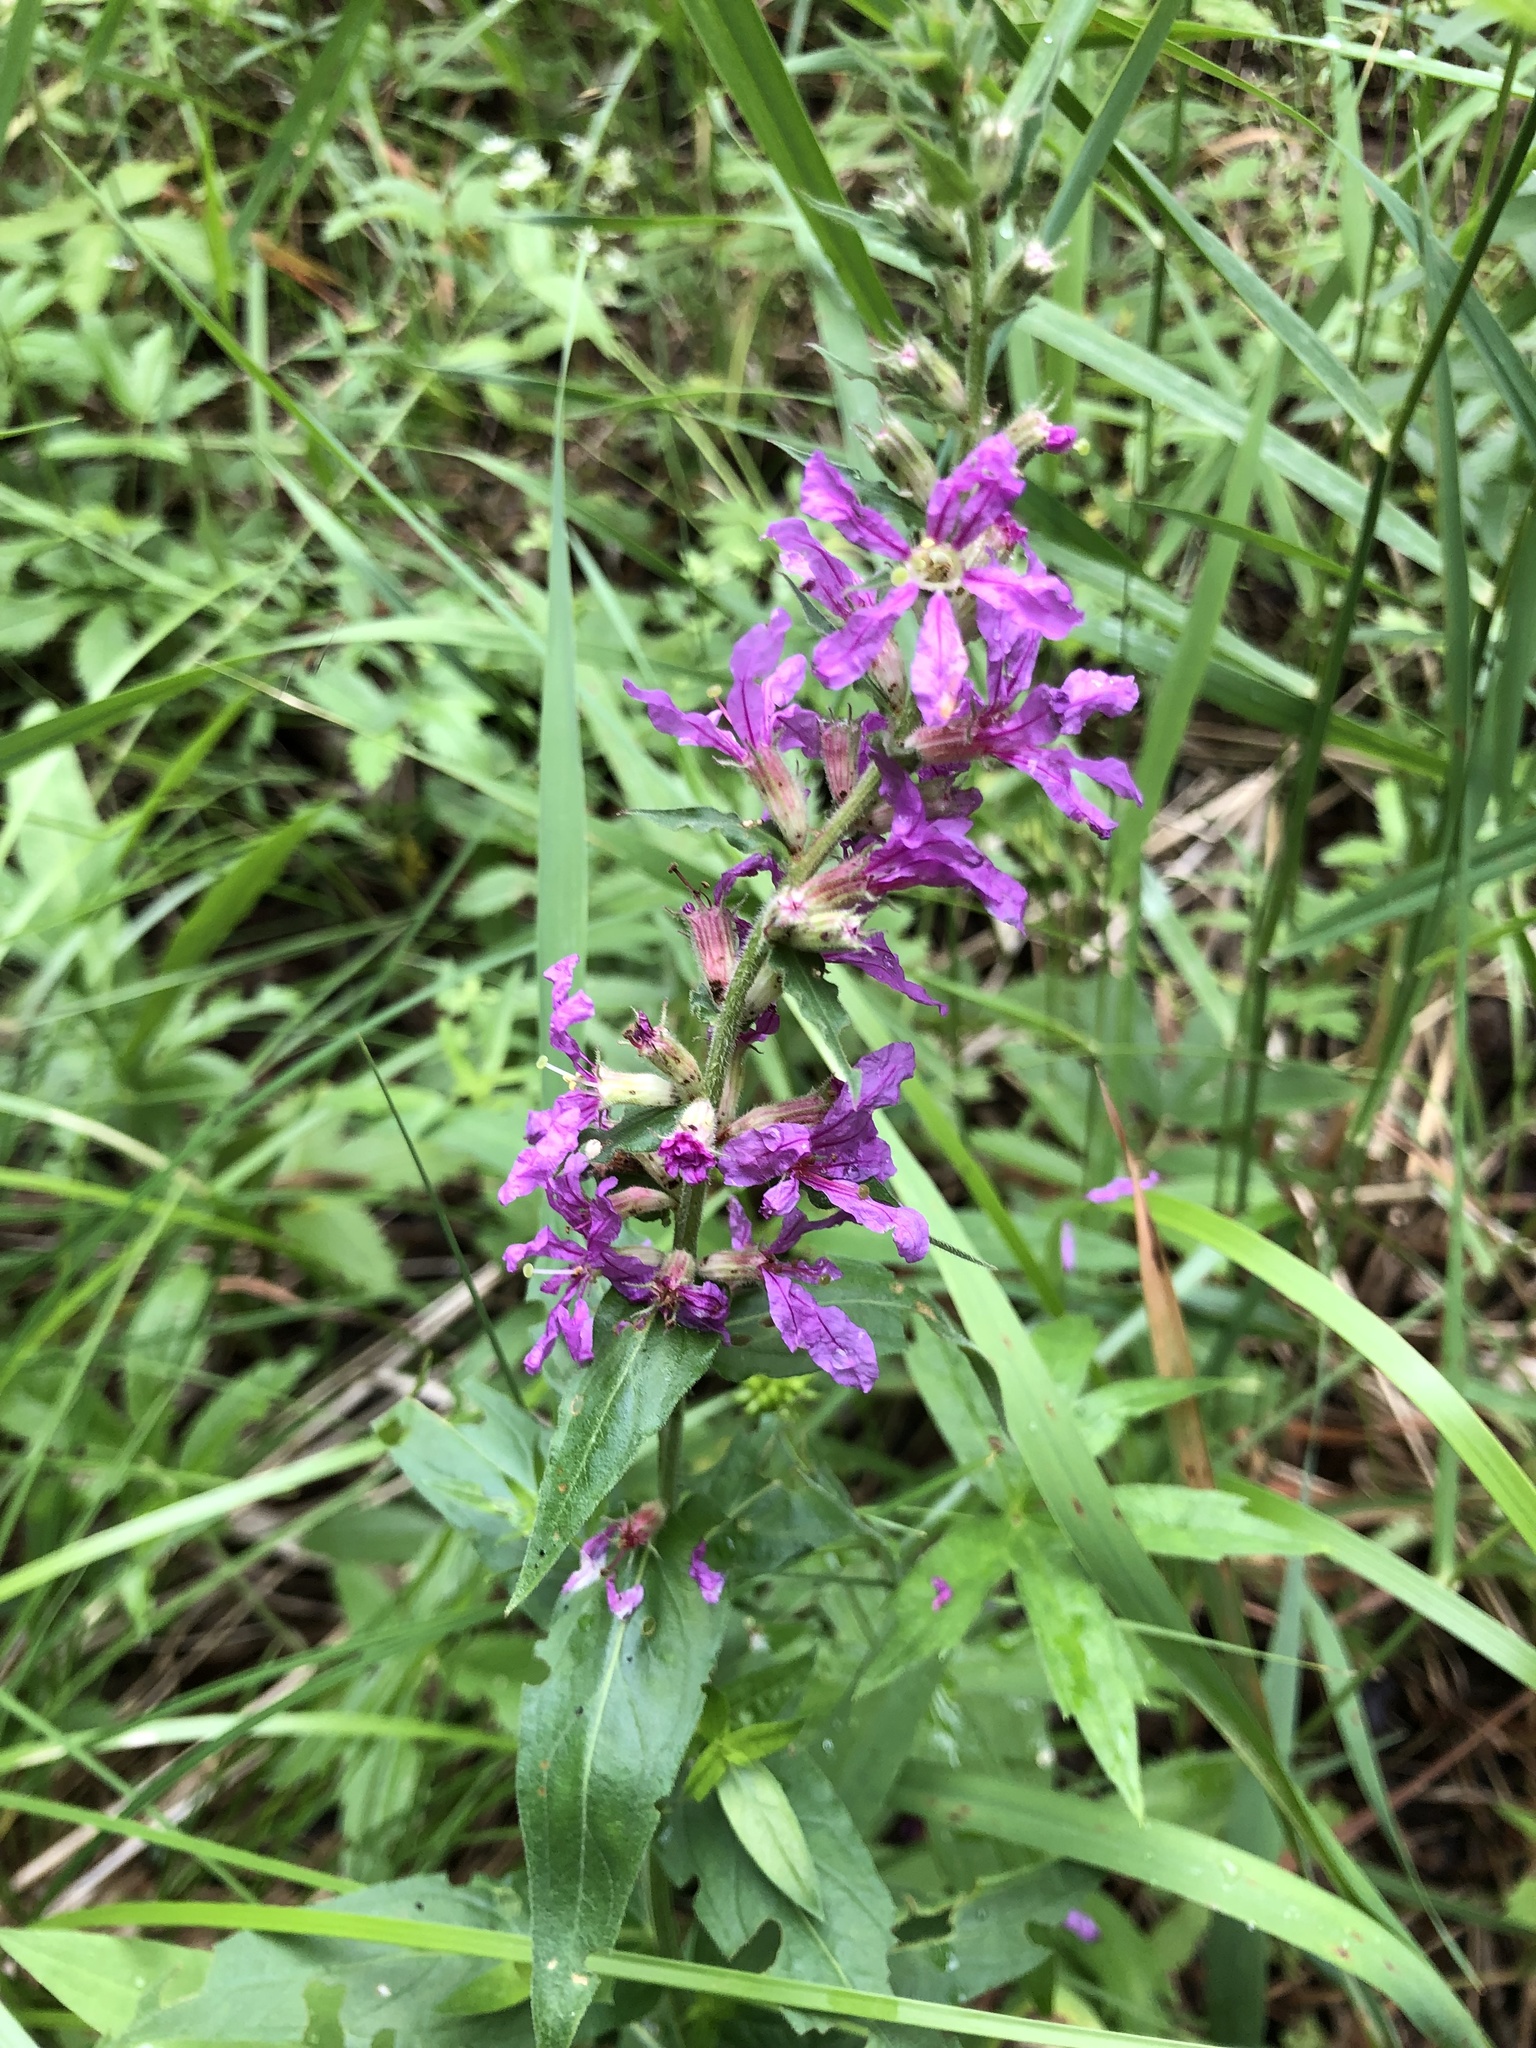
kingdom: Plantae
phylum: Tracheophyta
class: Magnoliopsida
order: Myrtales
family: Lythraceae
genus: Lythrum
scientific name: Lythrum salicaria
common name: Purple loosestrife
